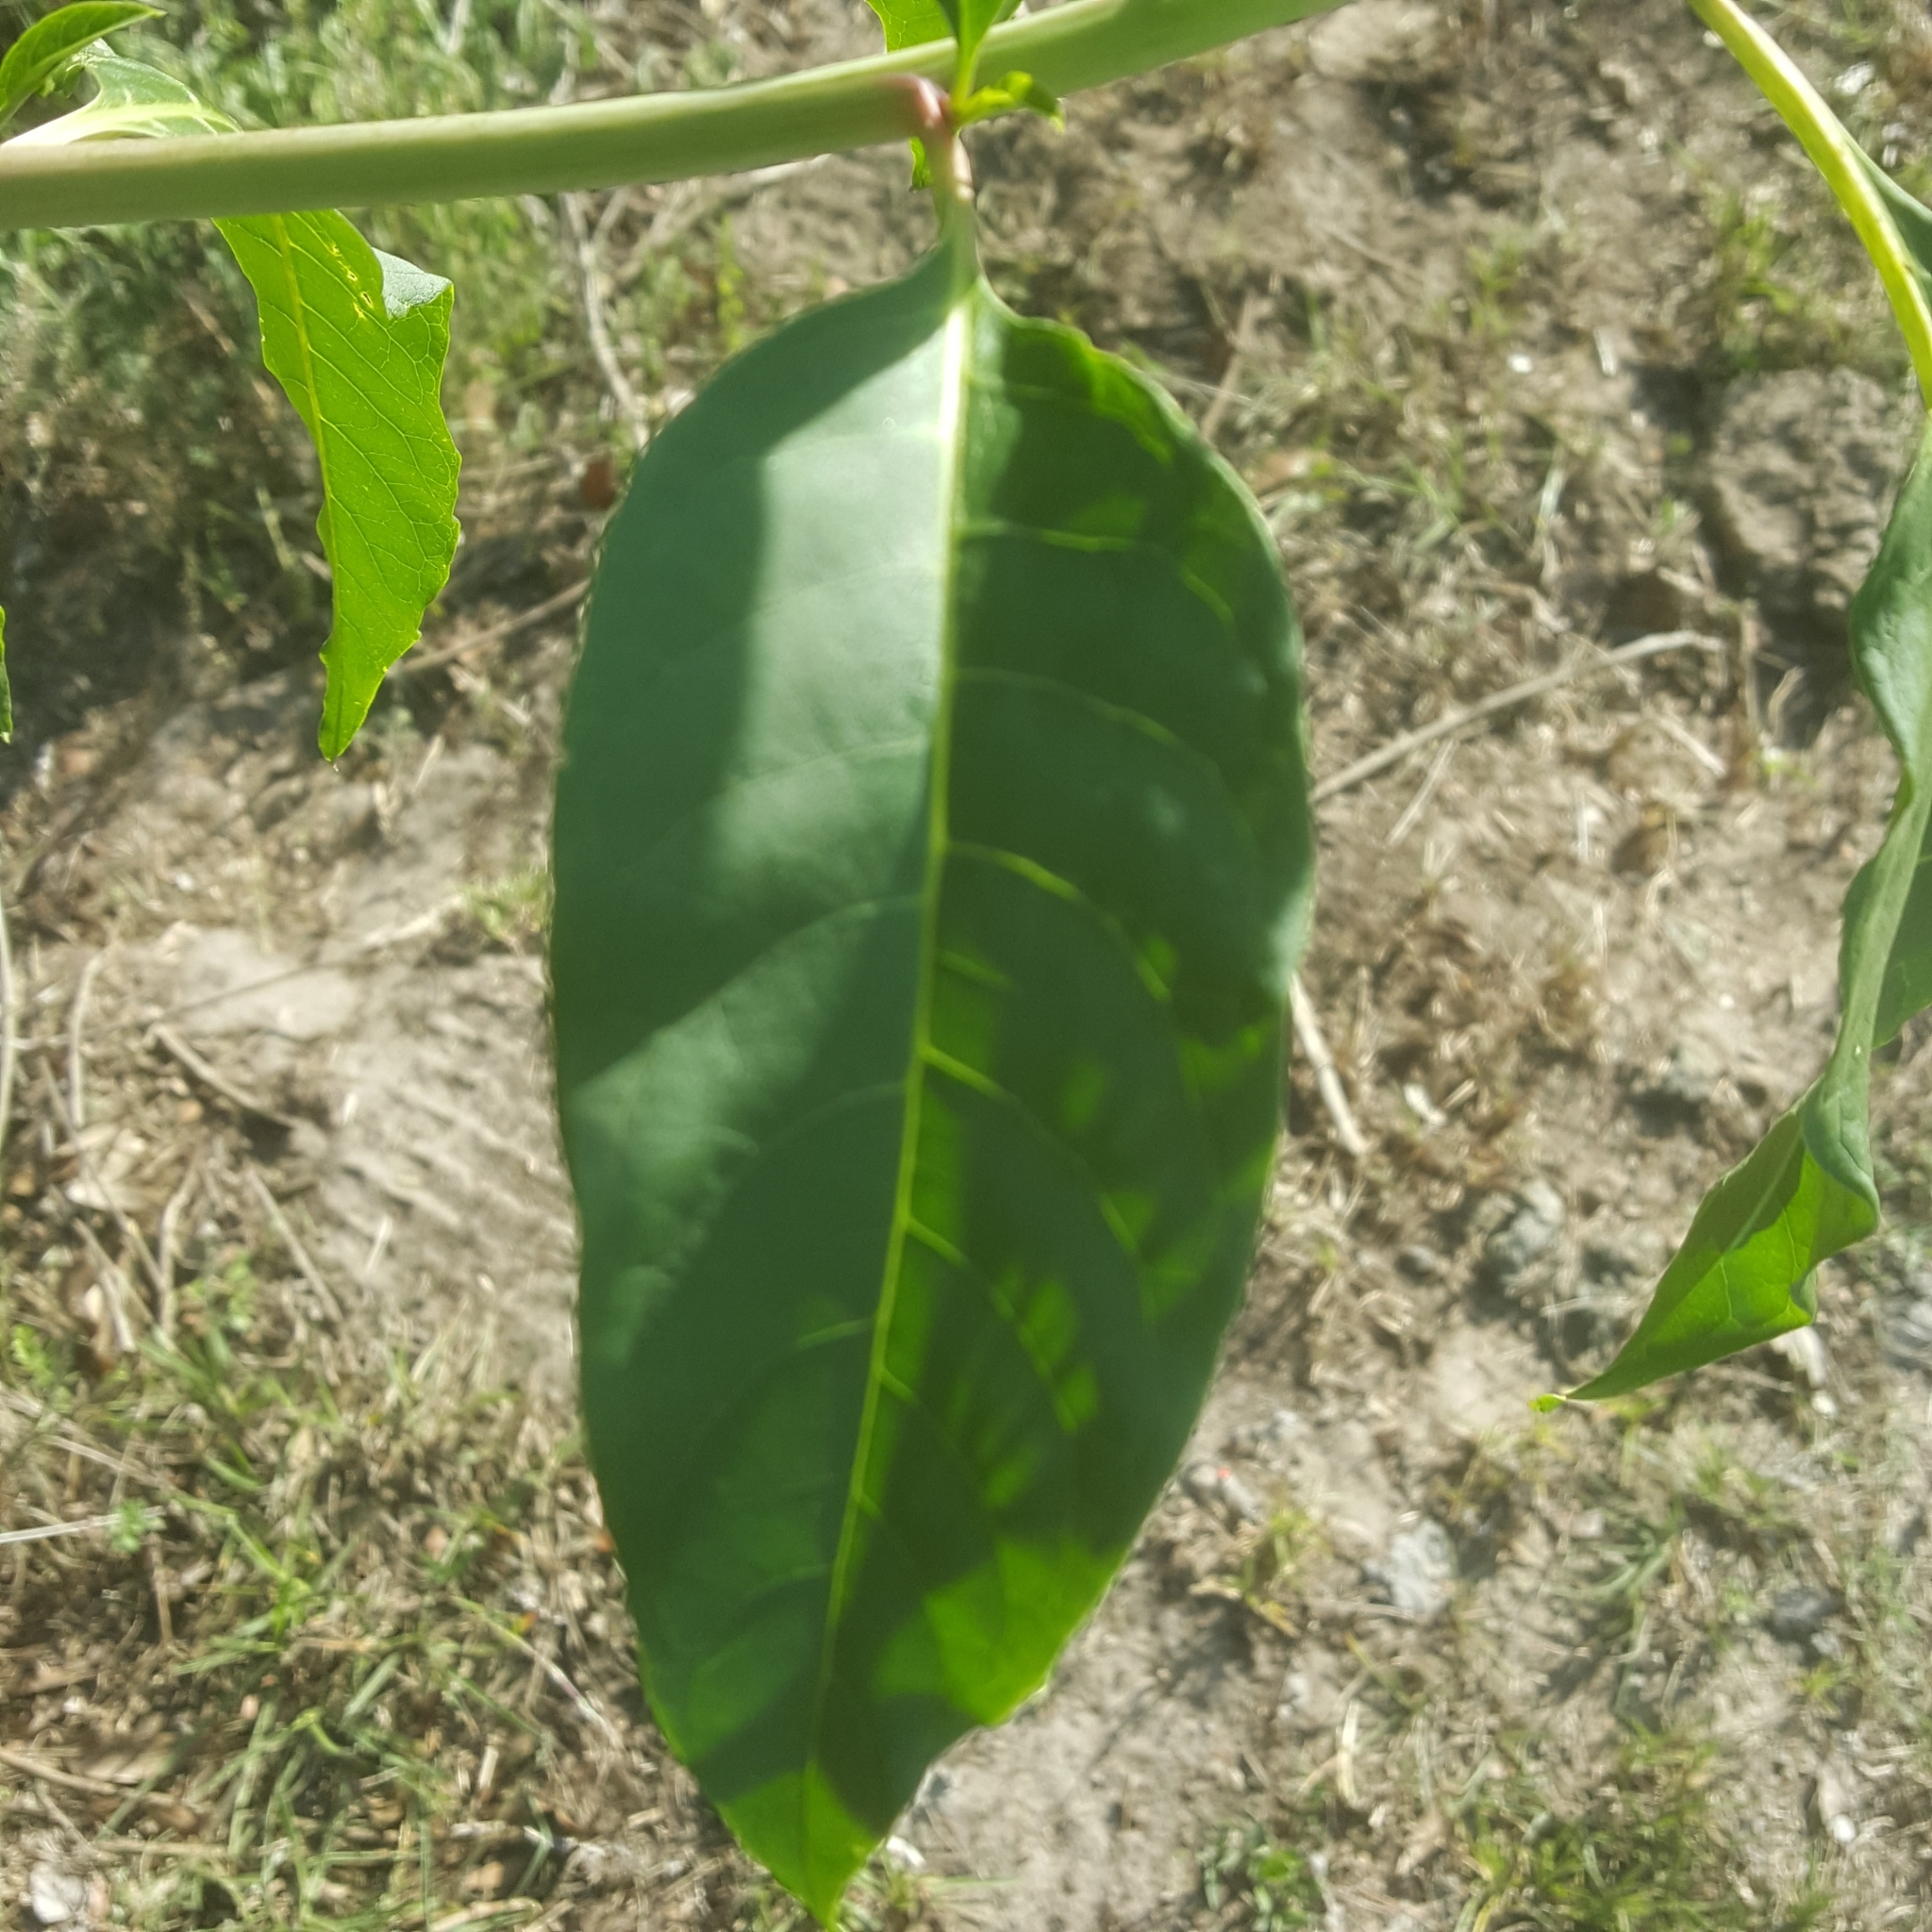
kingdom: Plantae
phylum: Tracheophyta
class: Magnoliopsida
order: Caryophyllales
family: Phytolaccaceae
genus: Phytolacca
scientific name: Phytolacca americana
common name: American pokeweed
